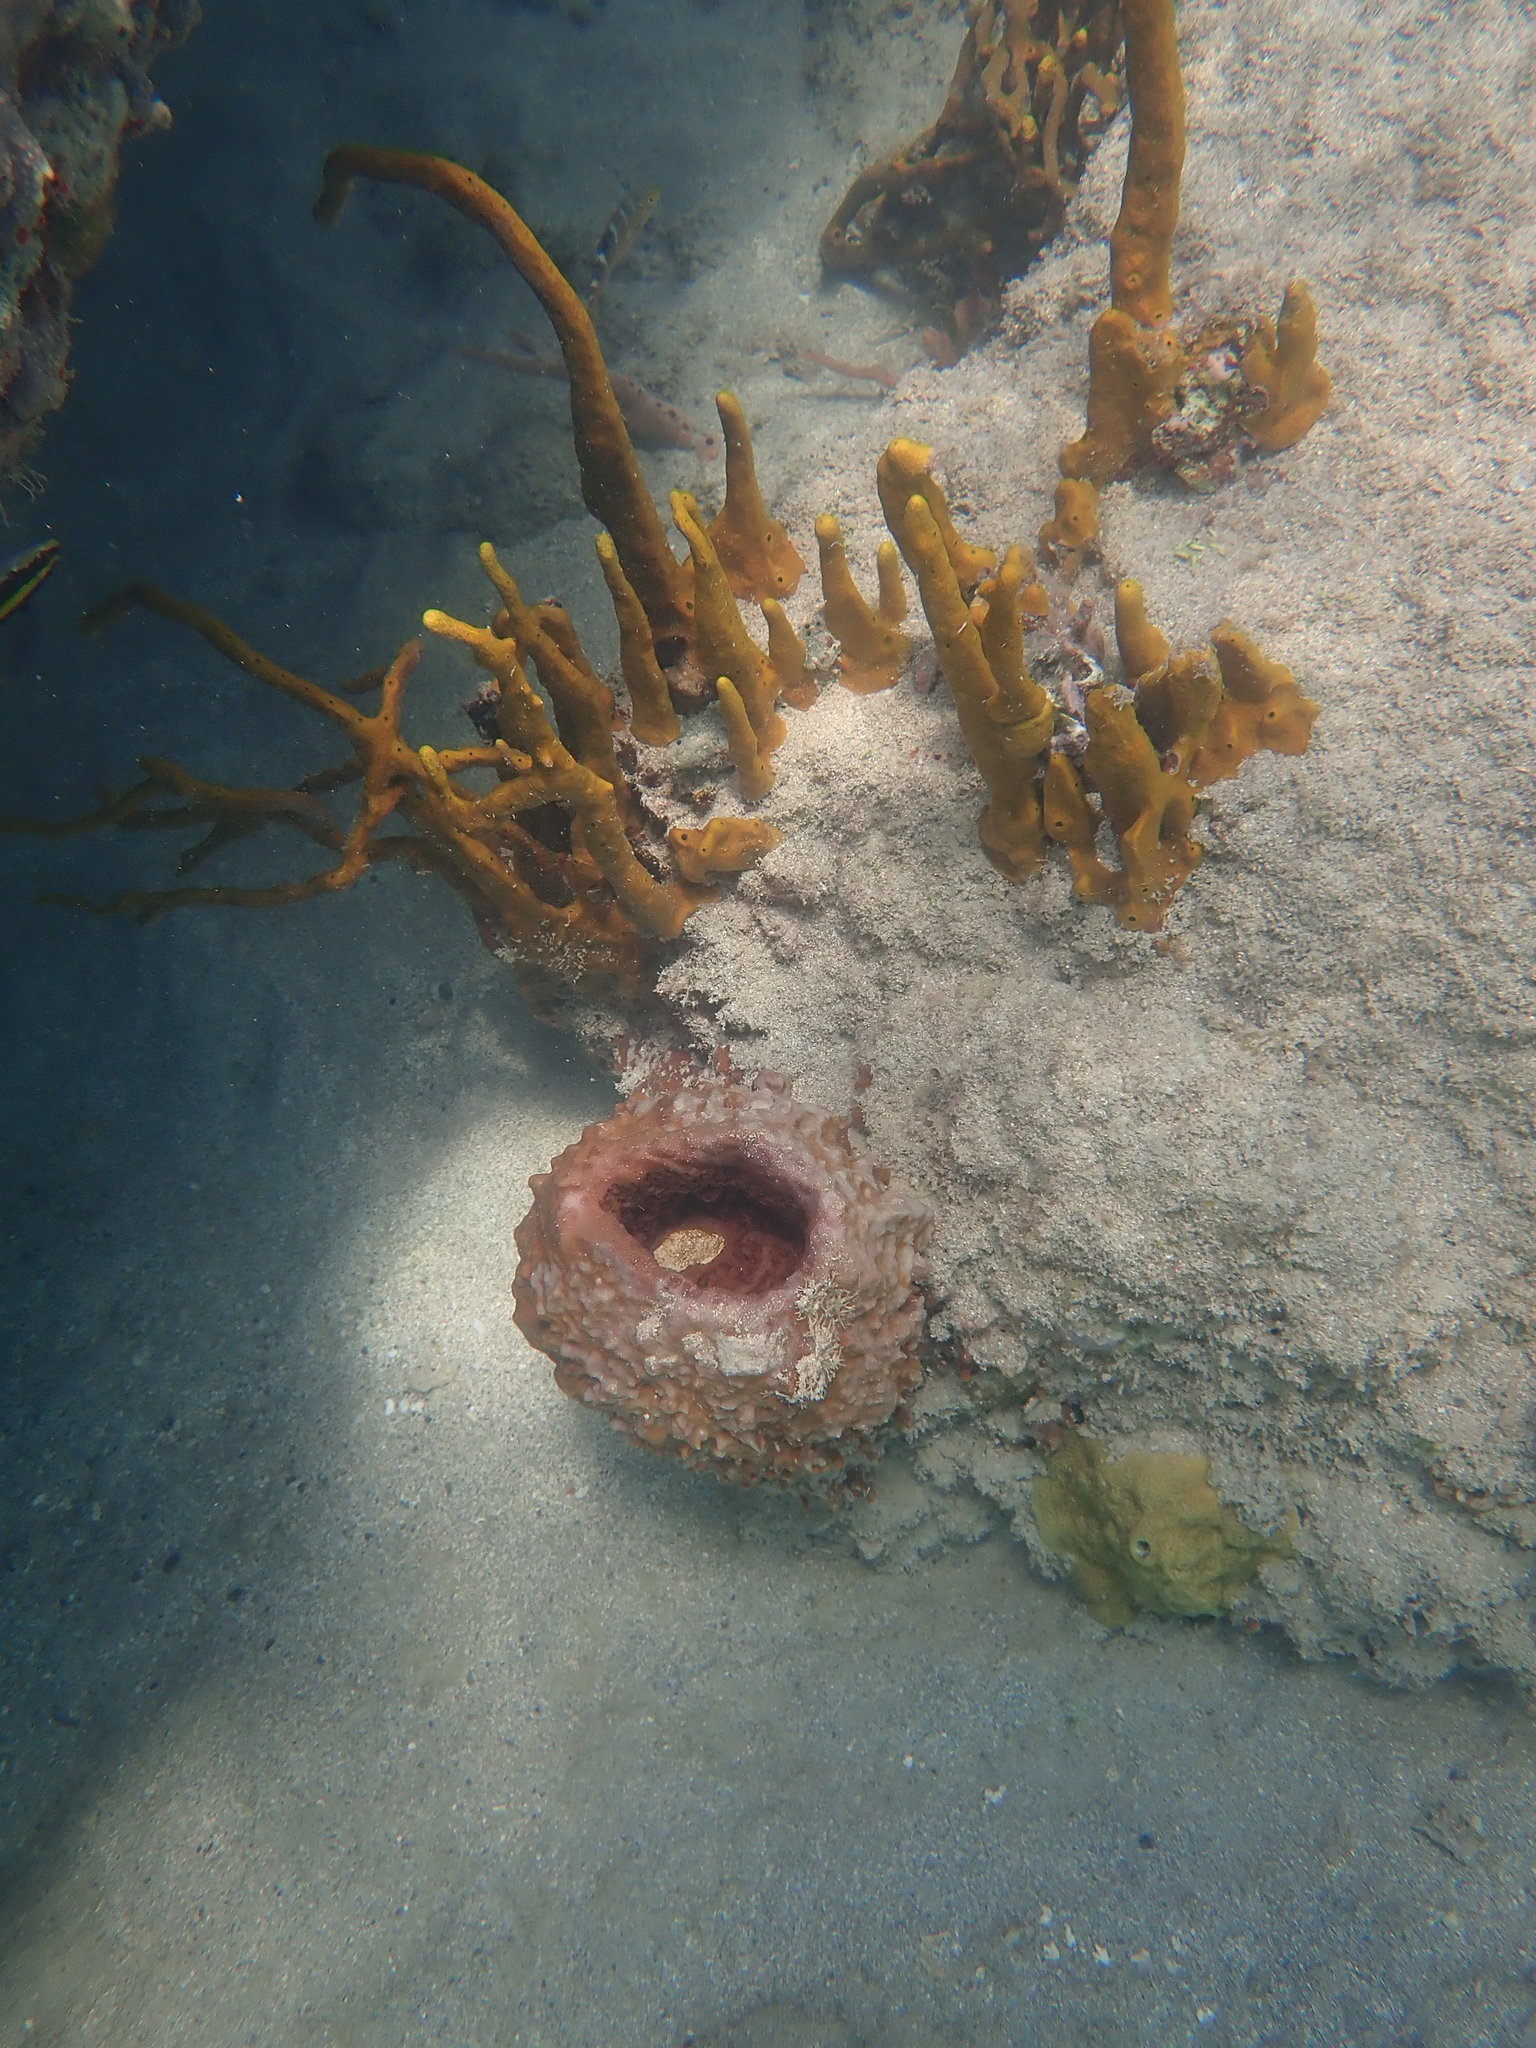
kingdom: Animalia
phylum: Porifera
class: Demospongiae
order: Haplosclerida
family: Petrosiidae
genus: Xestospongia
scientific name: Xestospongia muta
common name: Giant barrel sponge
